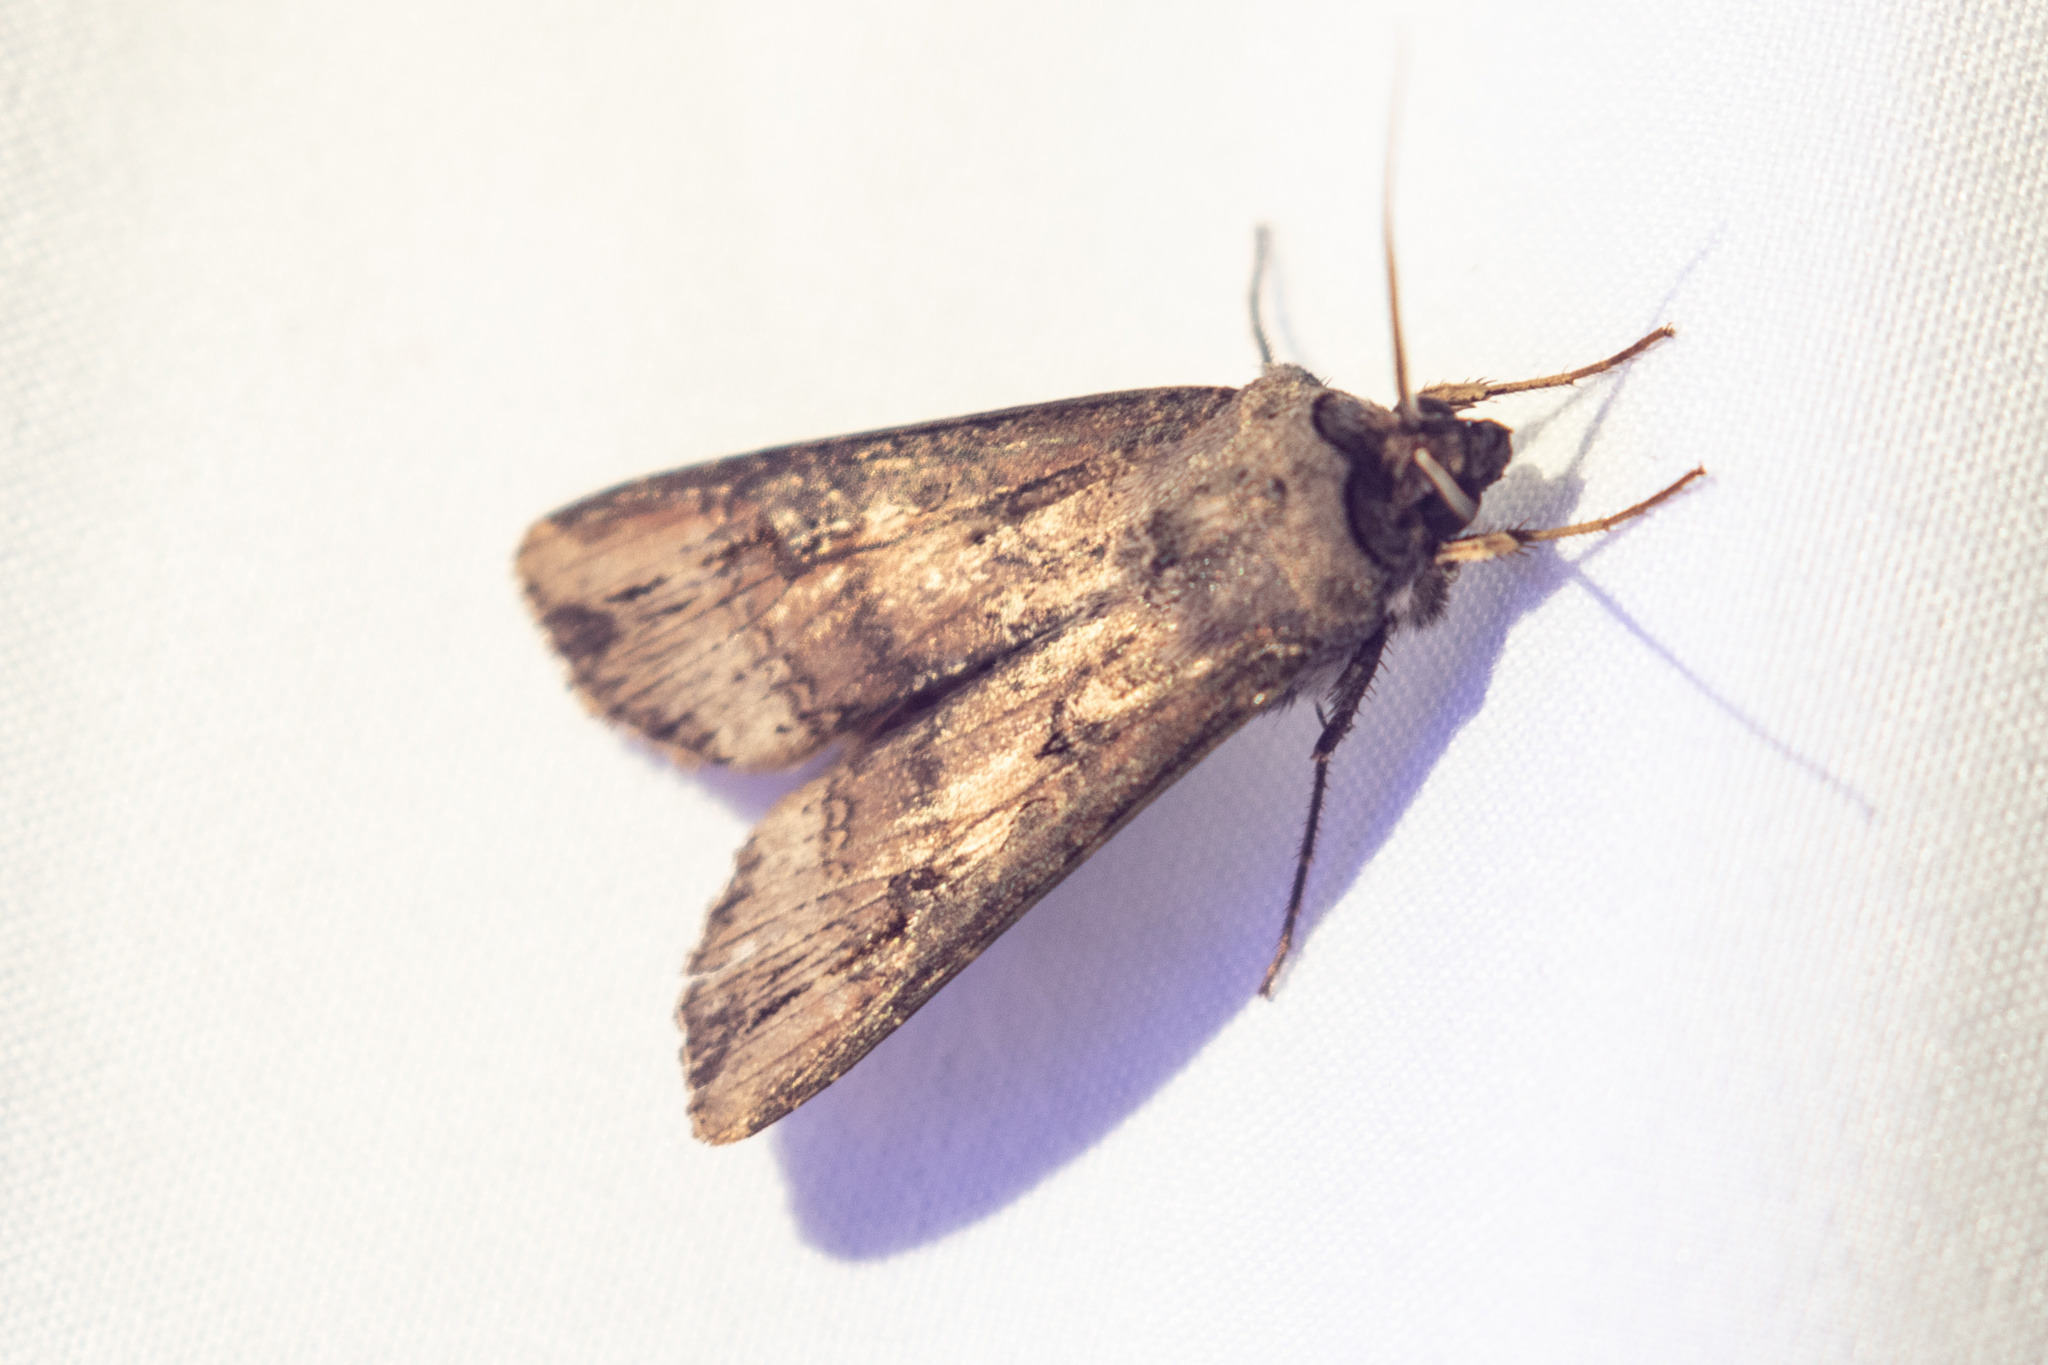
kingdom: Animalia
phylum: Arthropoda
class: Insecta
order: Lepidoptera
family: Noctuidae
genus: Agrotis
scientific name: Agrotis ipsilon
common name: Dark sword-grass
